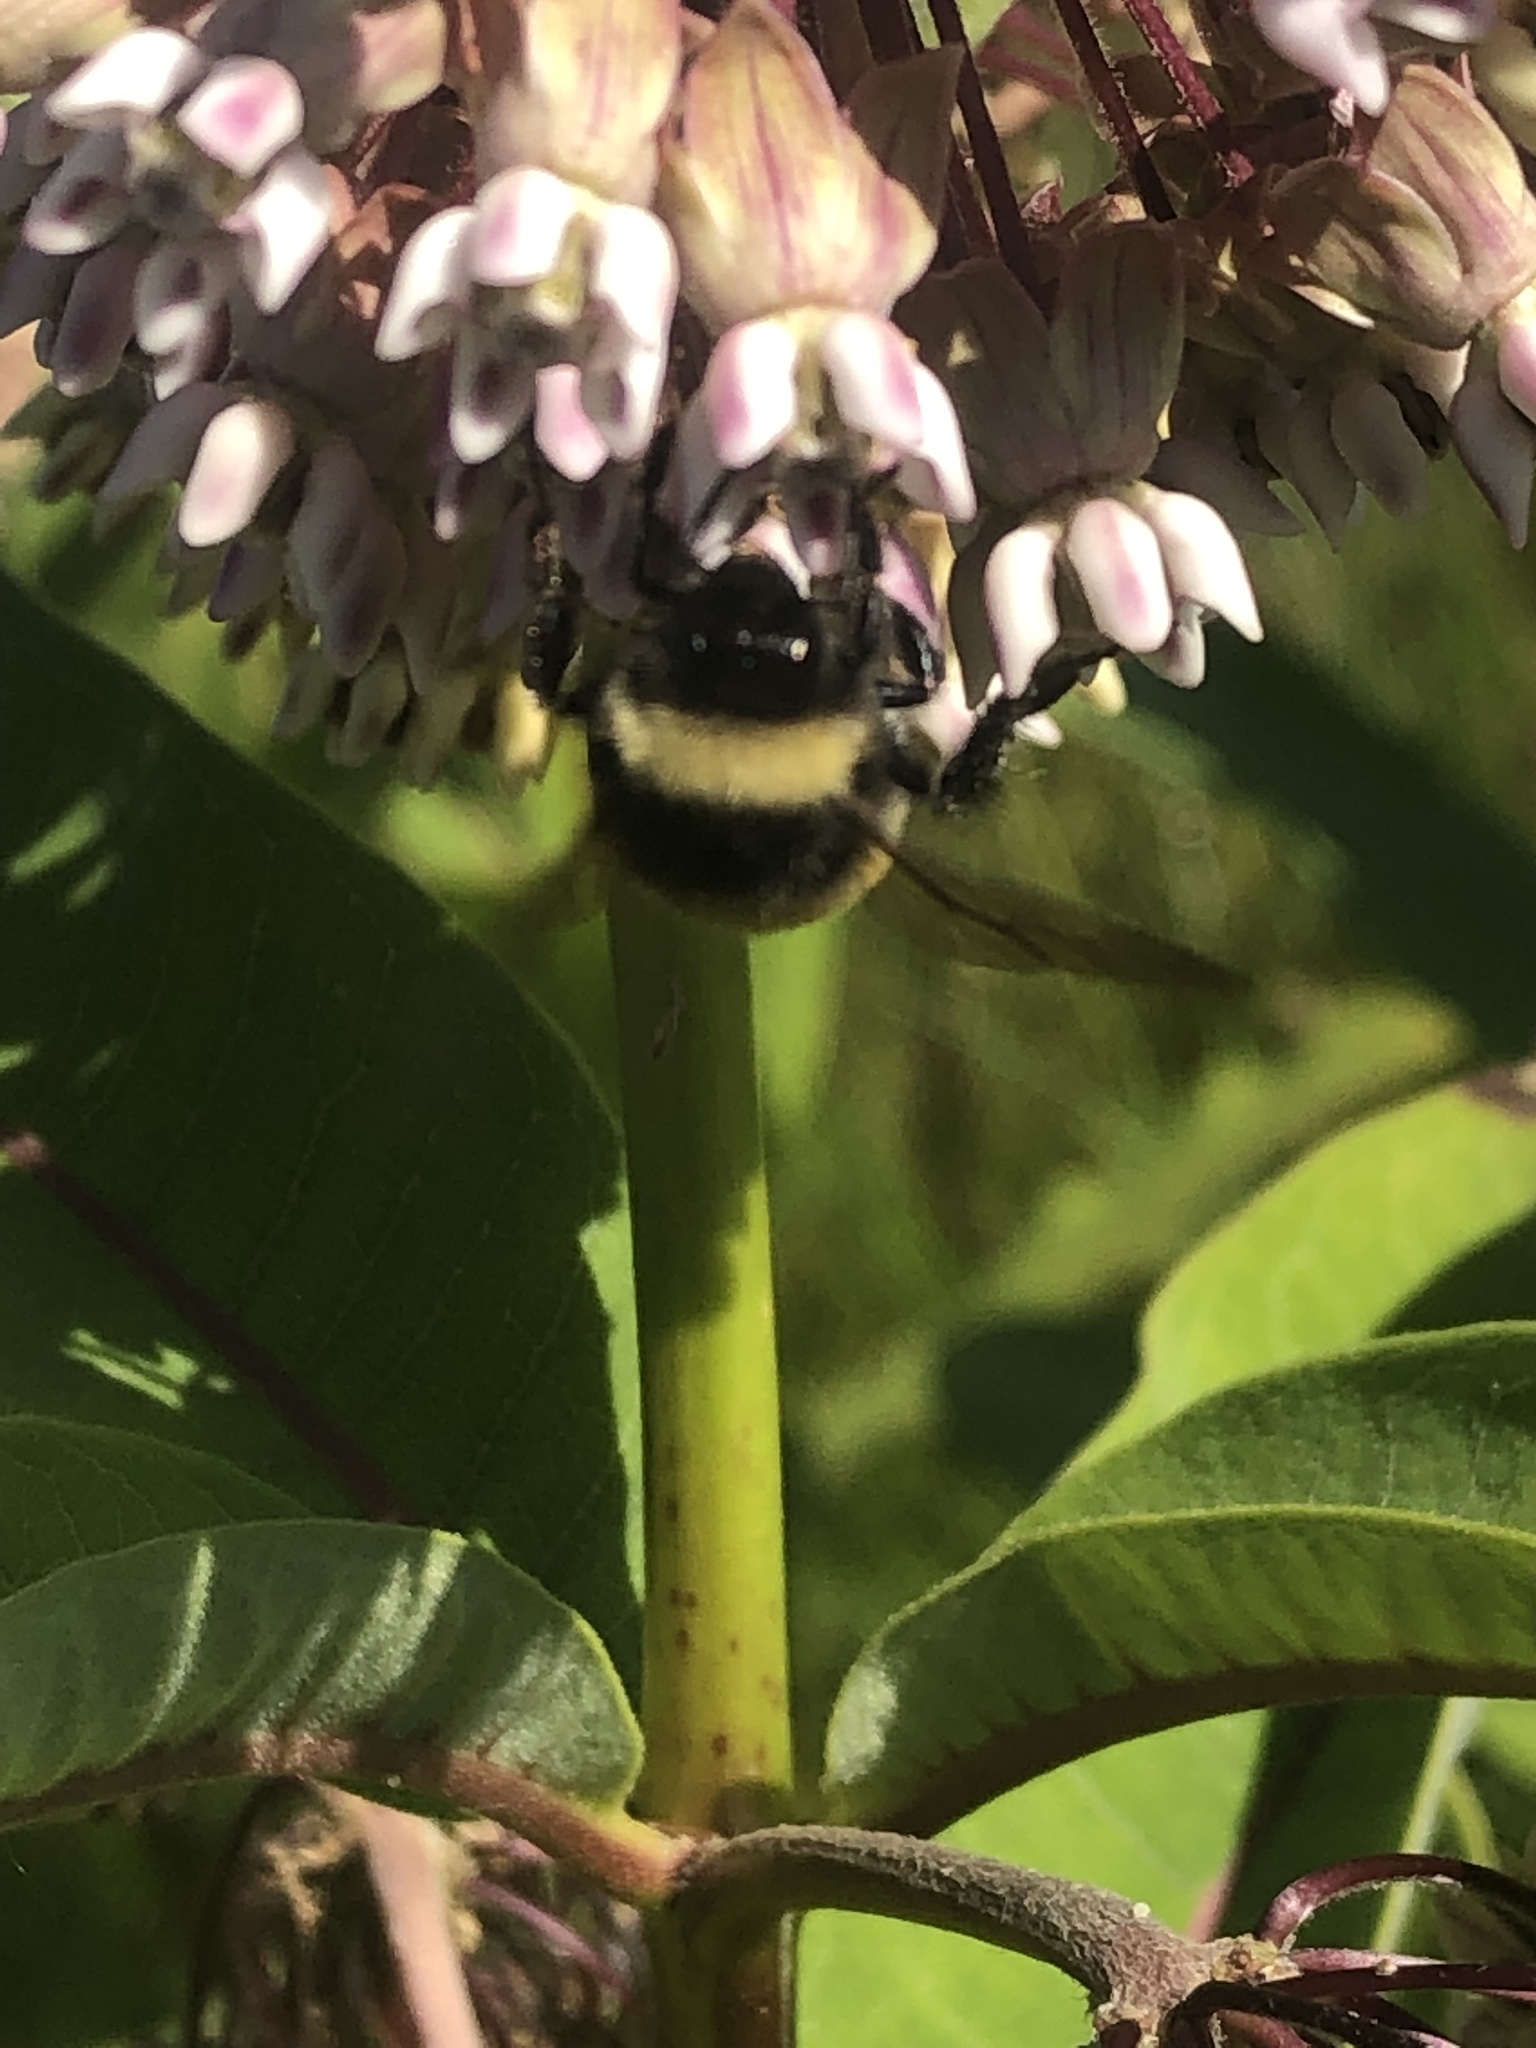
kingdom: Animalia
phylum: Arthropoda
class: Insecta
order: Hymenoptera
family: Apidae
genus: Bombus
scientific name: Bombus terricola
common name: Yellow-banded bumble bee
